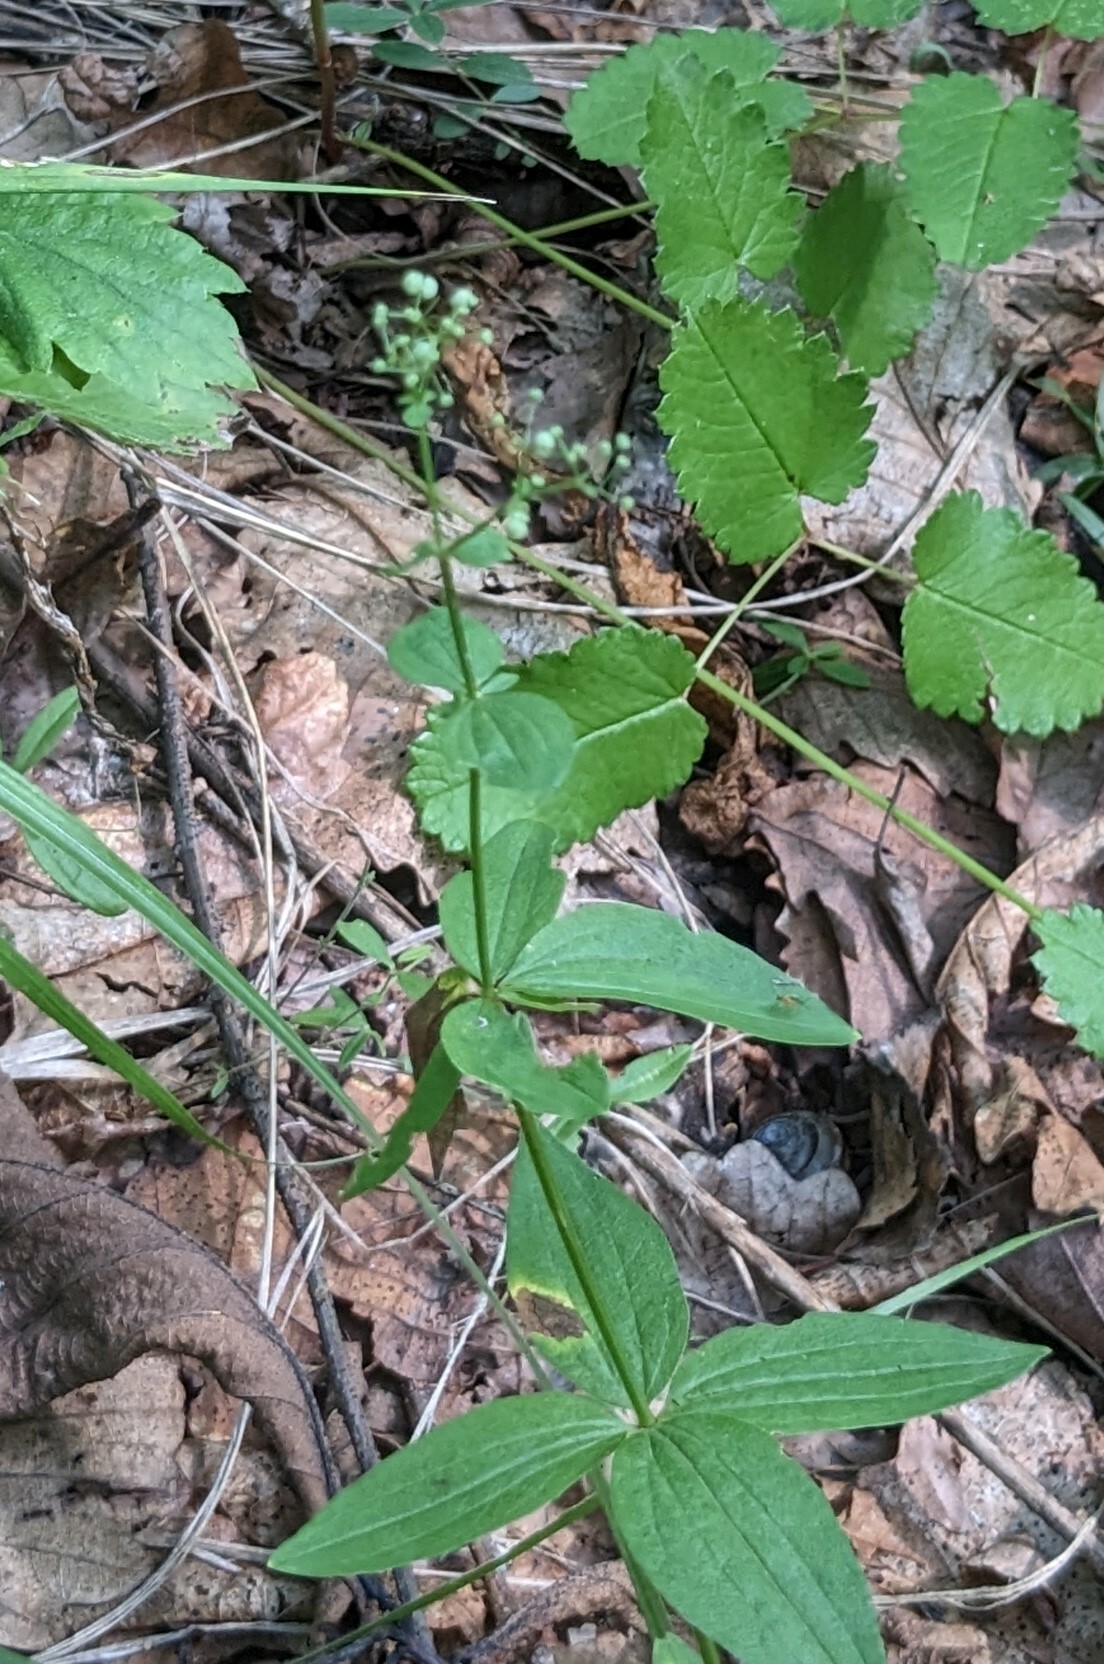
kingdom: Plantae
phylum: Tracheophyta
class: Magnoliopsida
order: Gentianales
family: Rubiaceae
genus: Galium
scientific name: Galium boreale
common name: Northern bedstraw
